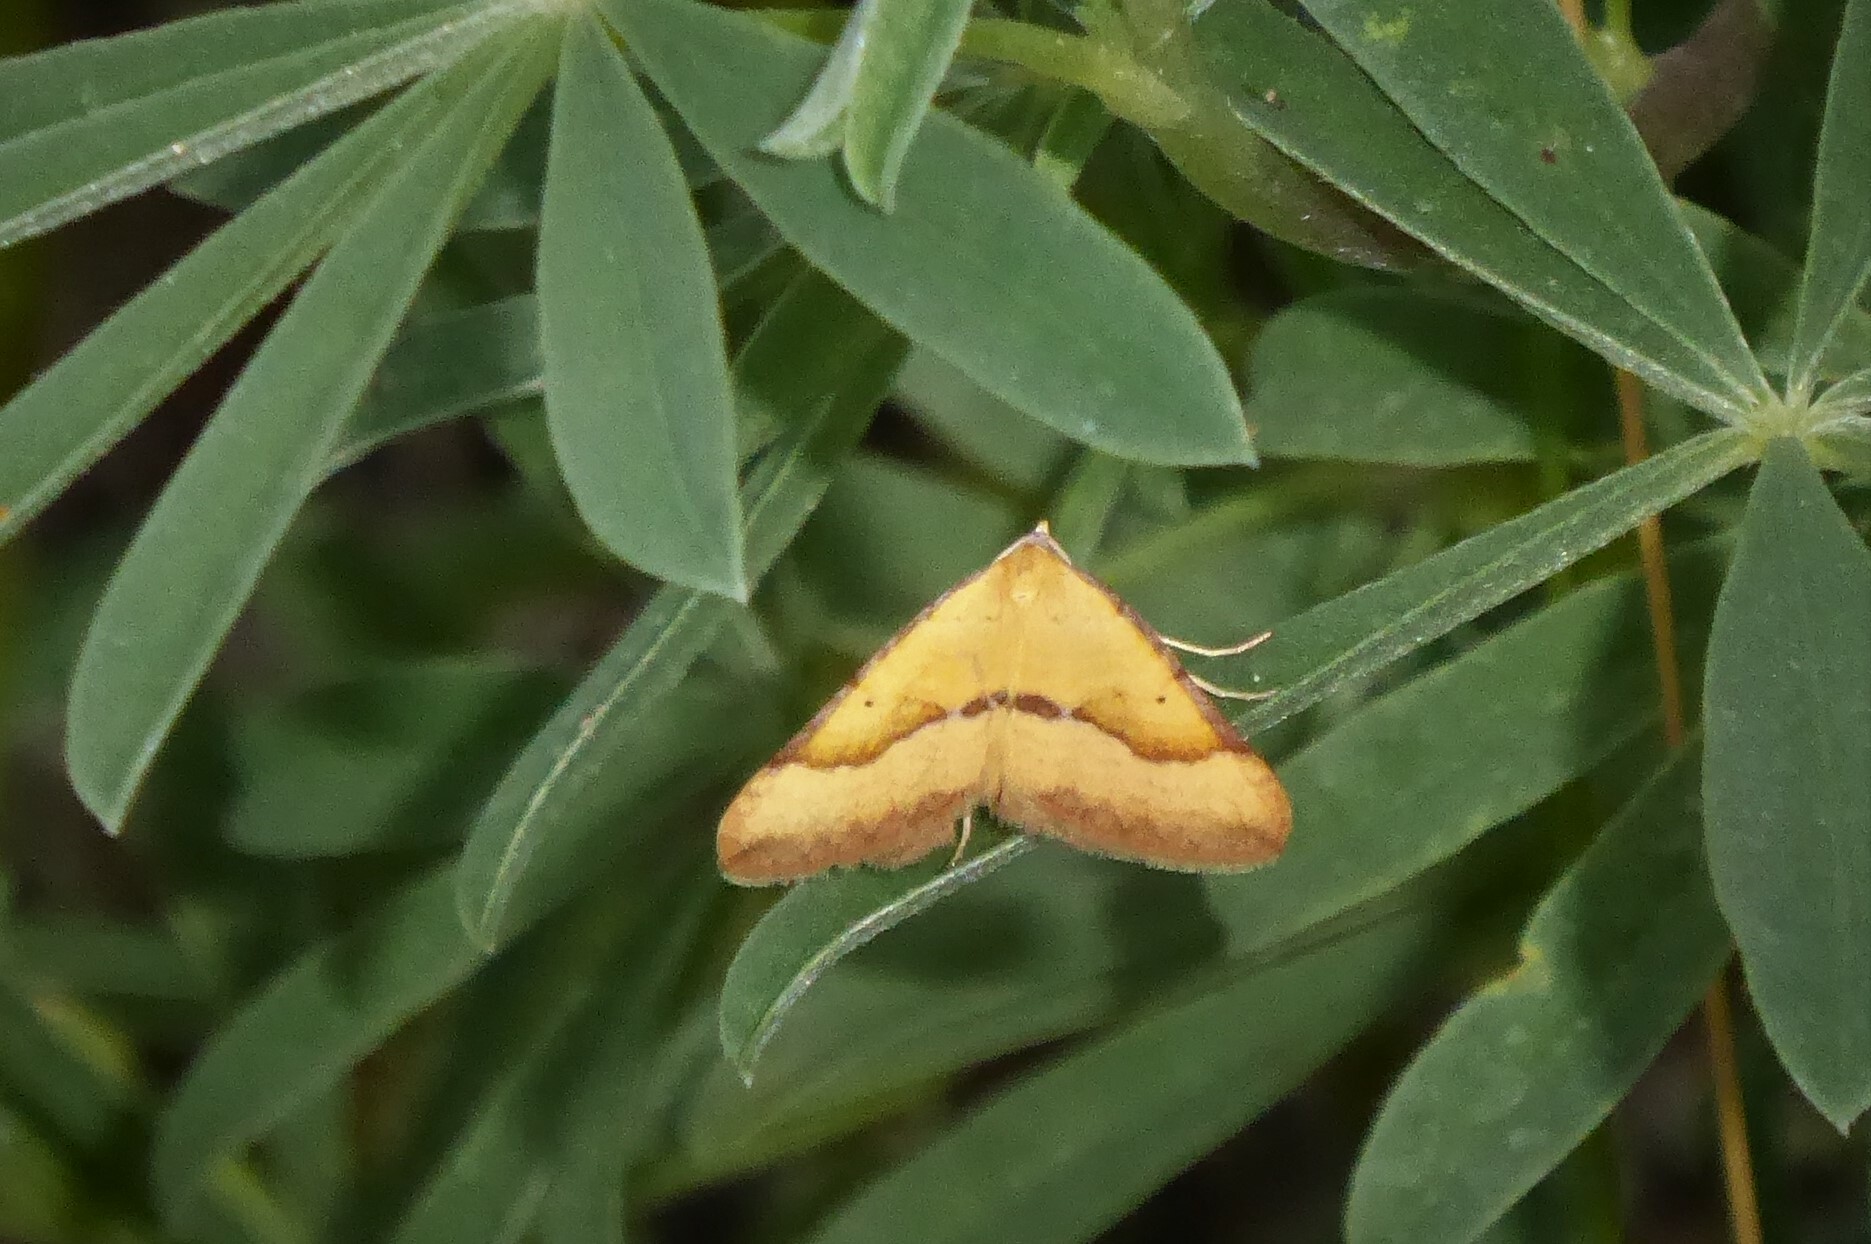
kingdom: Animalia
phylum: Arthropoda
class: Insecta
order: Lepidoptera
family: Geometridae
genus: Anachloris
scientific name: Anachloris subochraria
